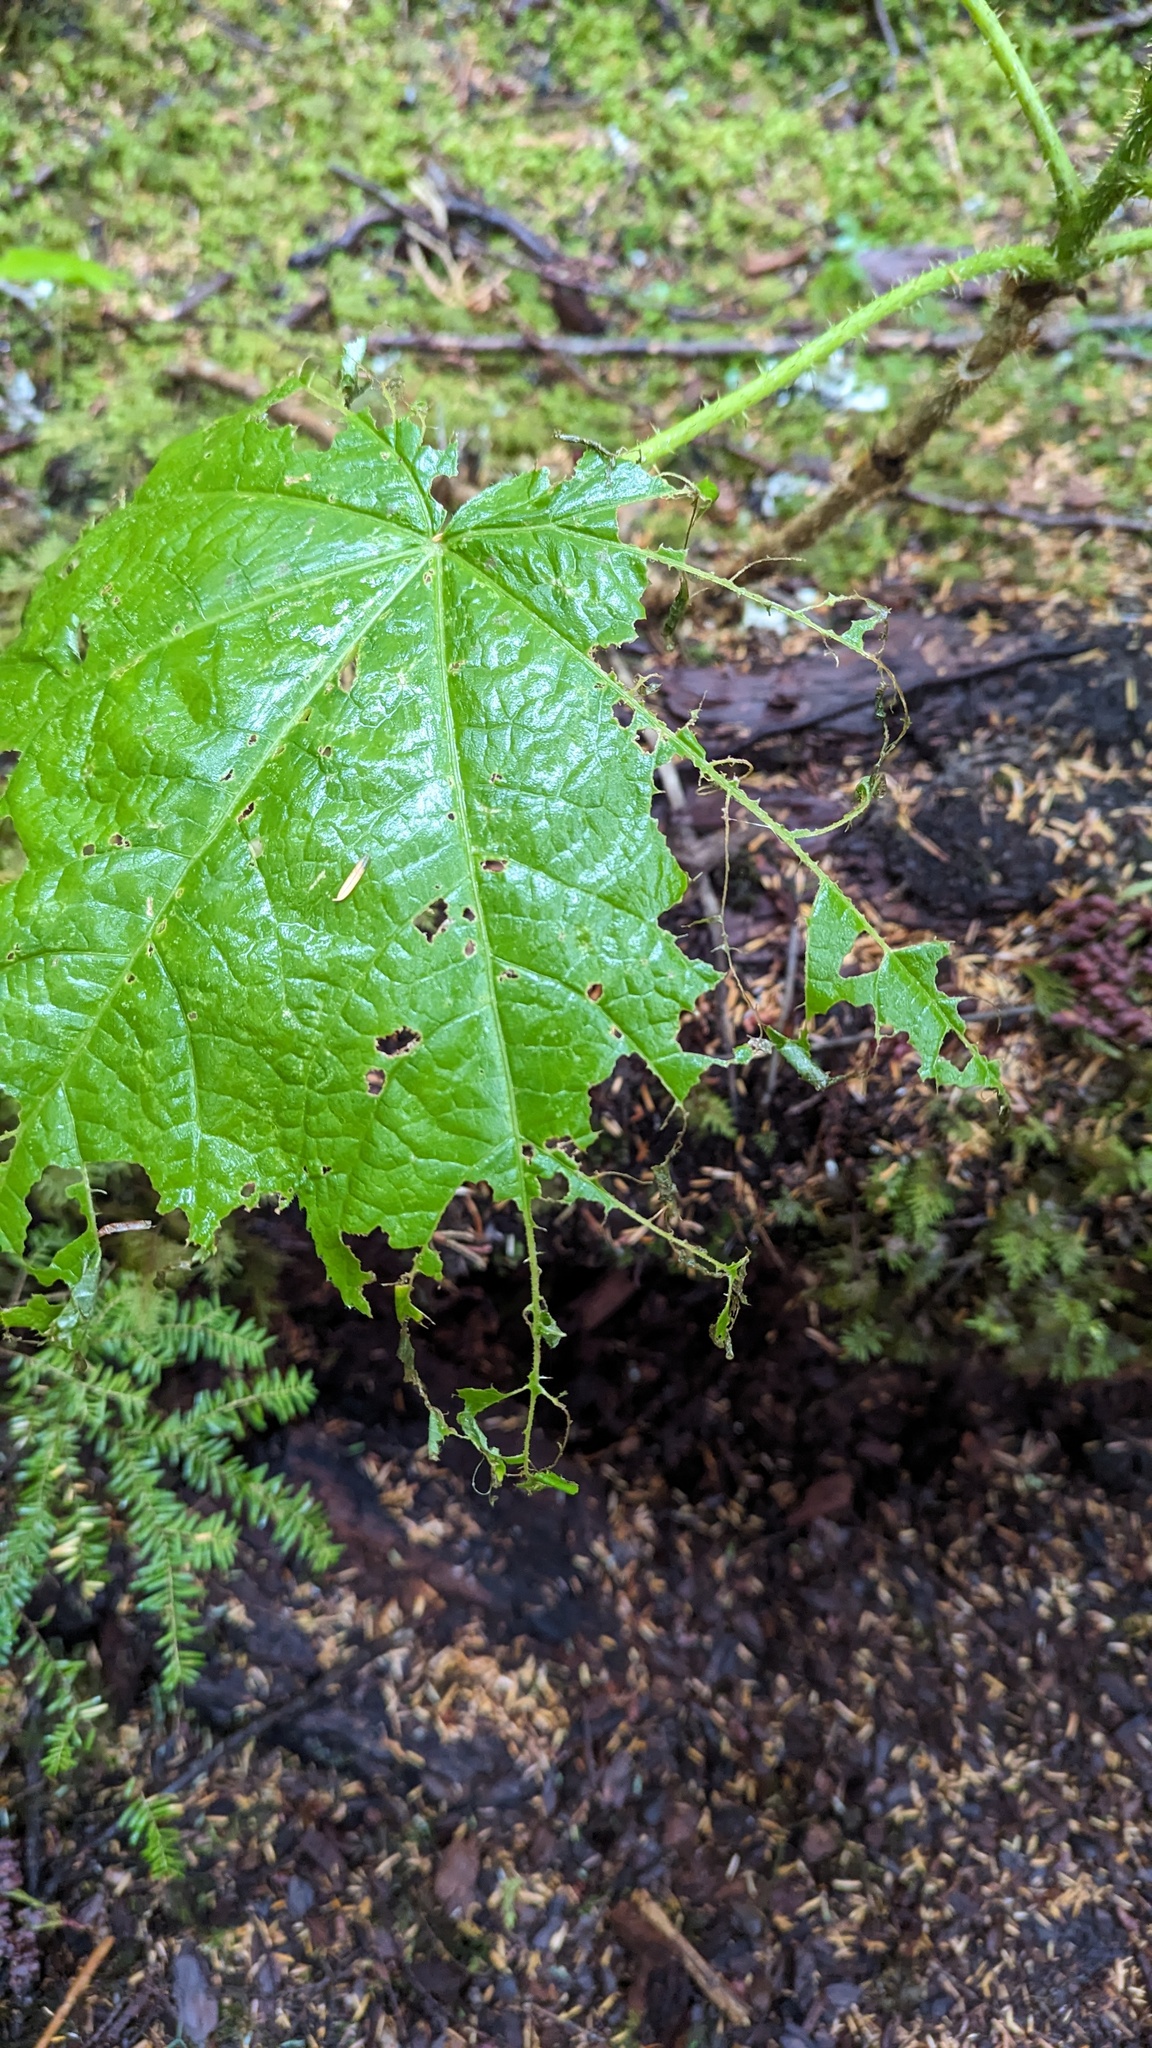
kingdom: Plantae
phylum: Tracheophyta
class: Magnoliopsida
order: Apiales
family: Araliaceae
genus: Oplopanax
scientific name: Oplopanax horridus
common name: Devil's walking-stick
